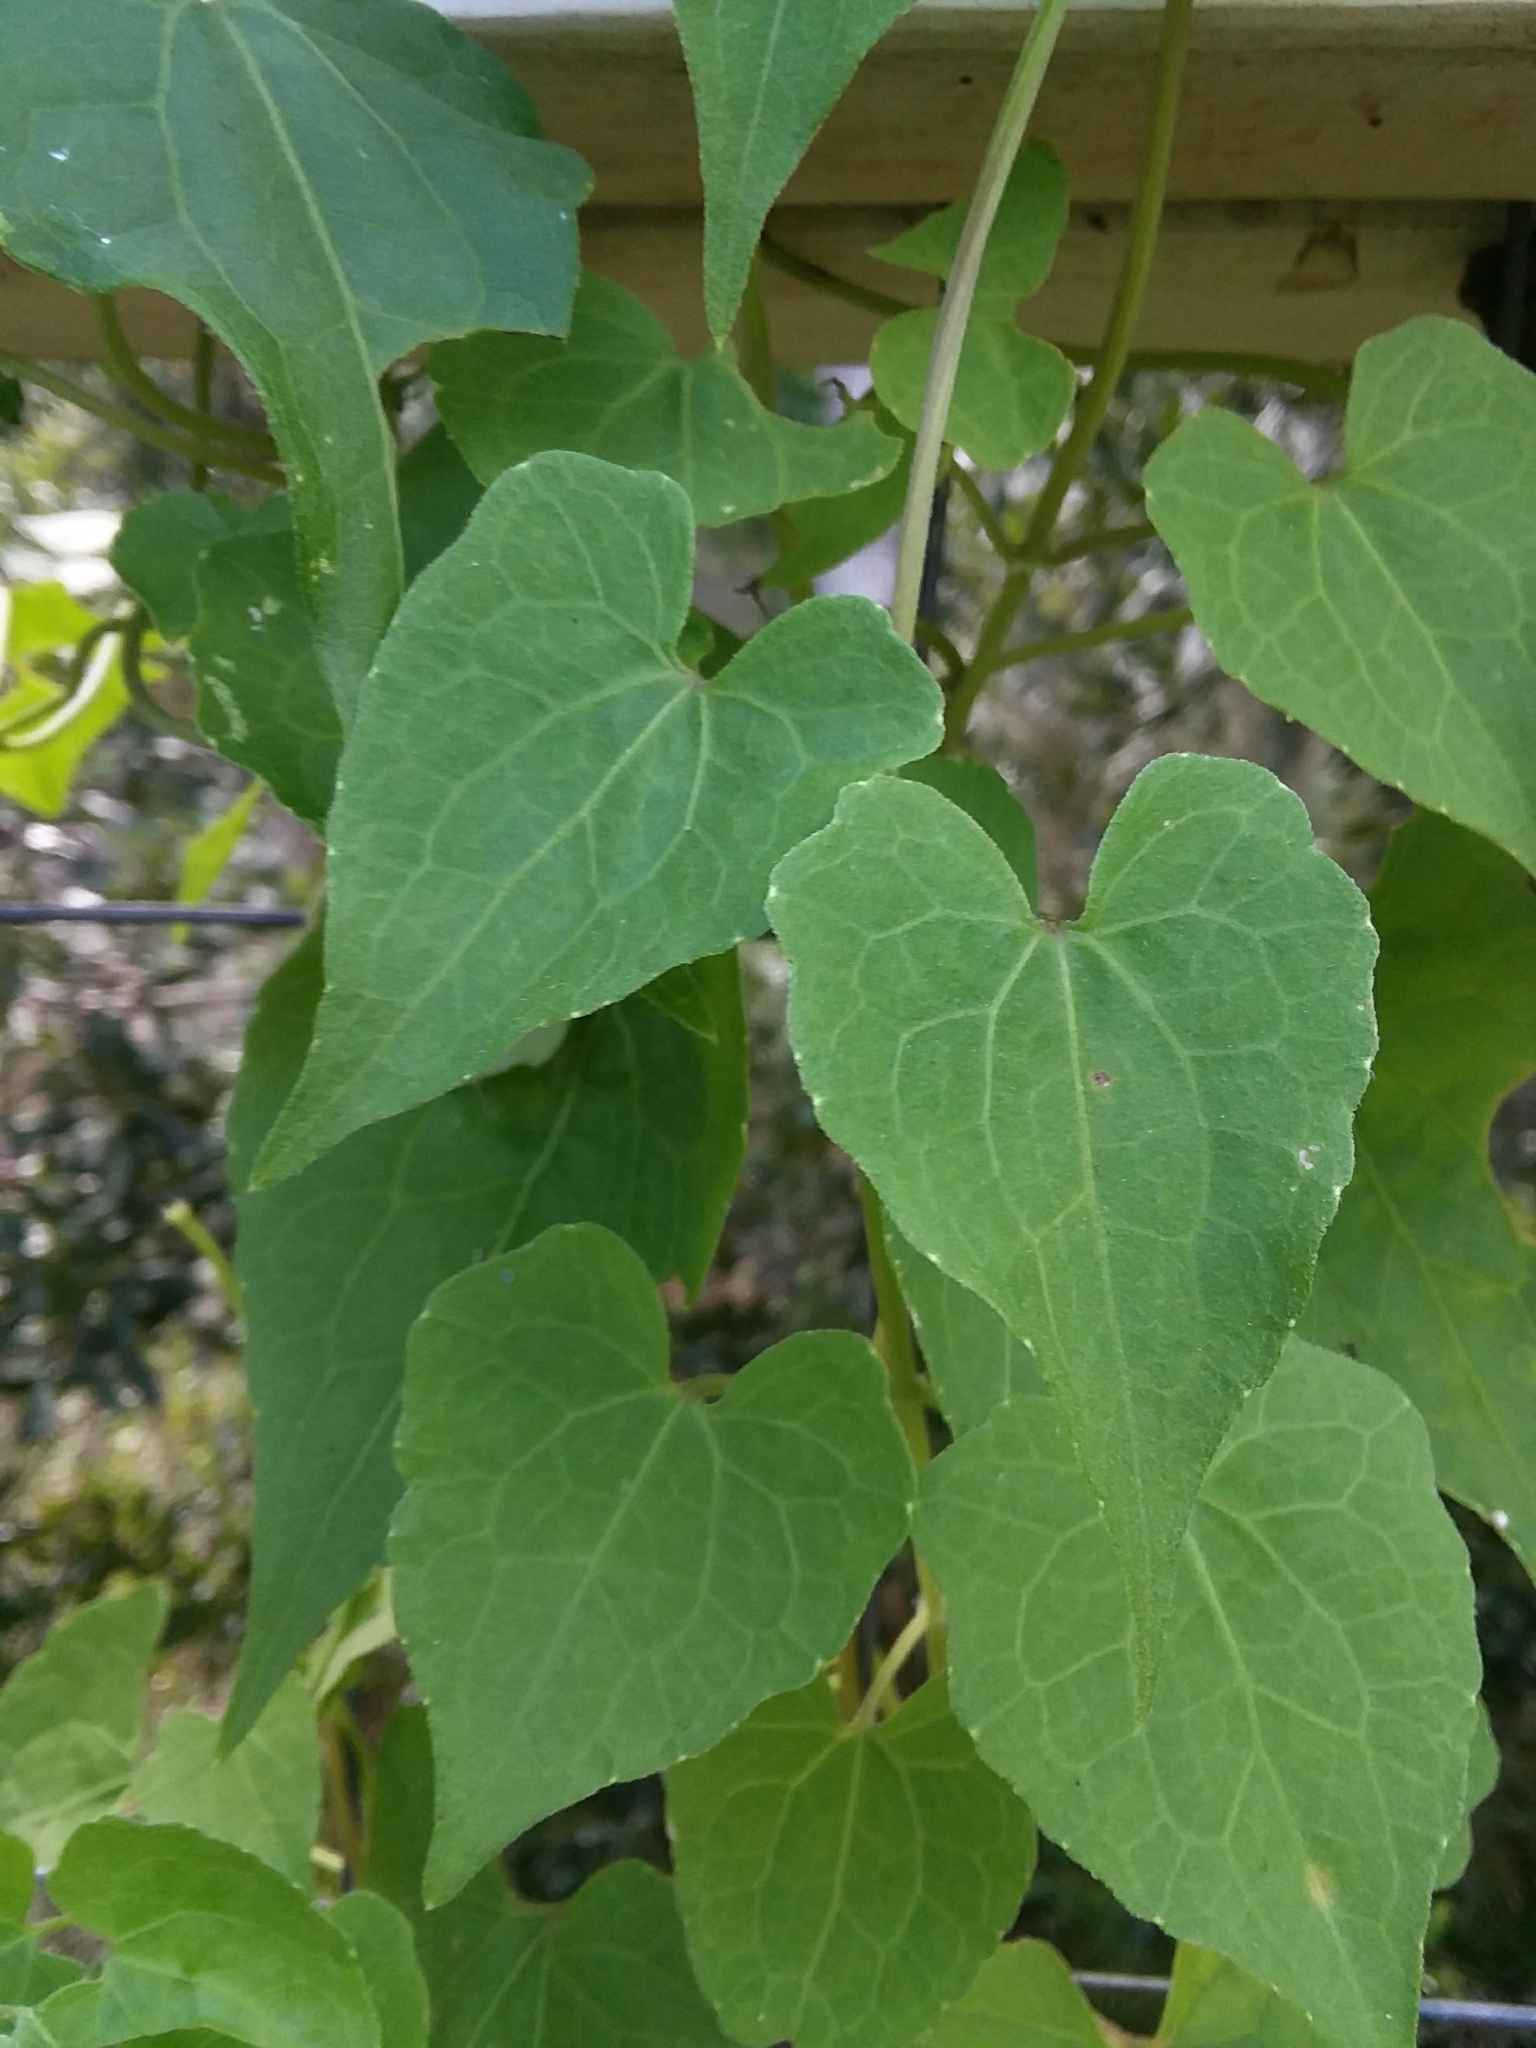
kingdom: Plantae
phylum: Tracheophyta
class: Magnoliopsida
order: Asterales
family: Asteraceae
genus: Mikania
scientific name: Mikania scandens
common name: Climbing hempvine
